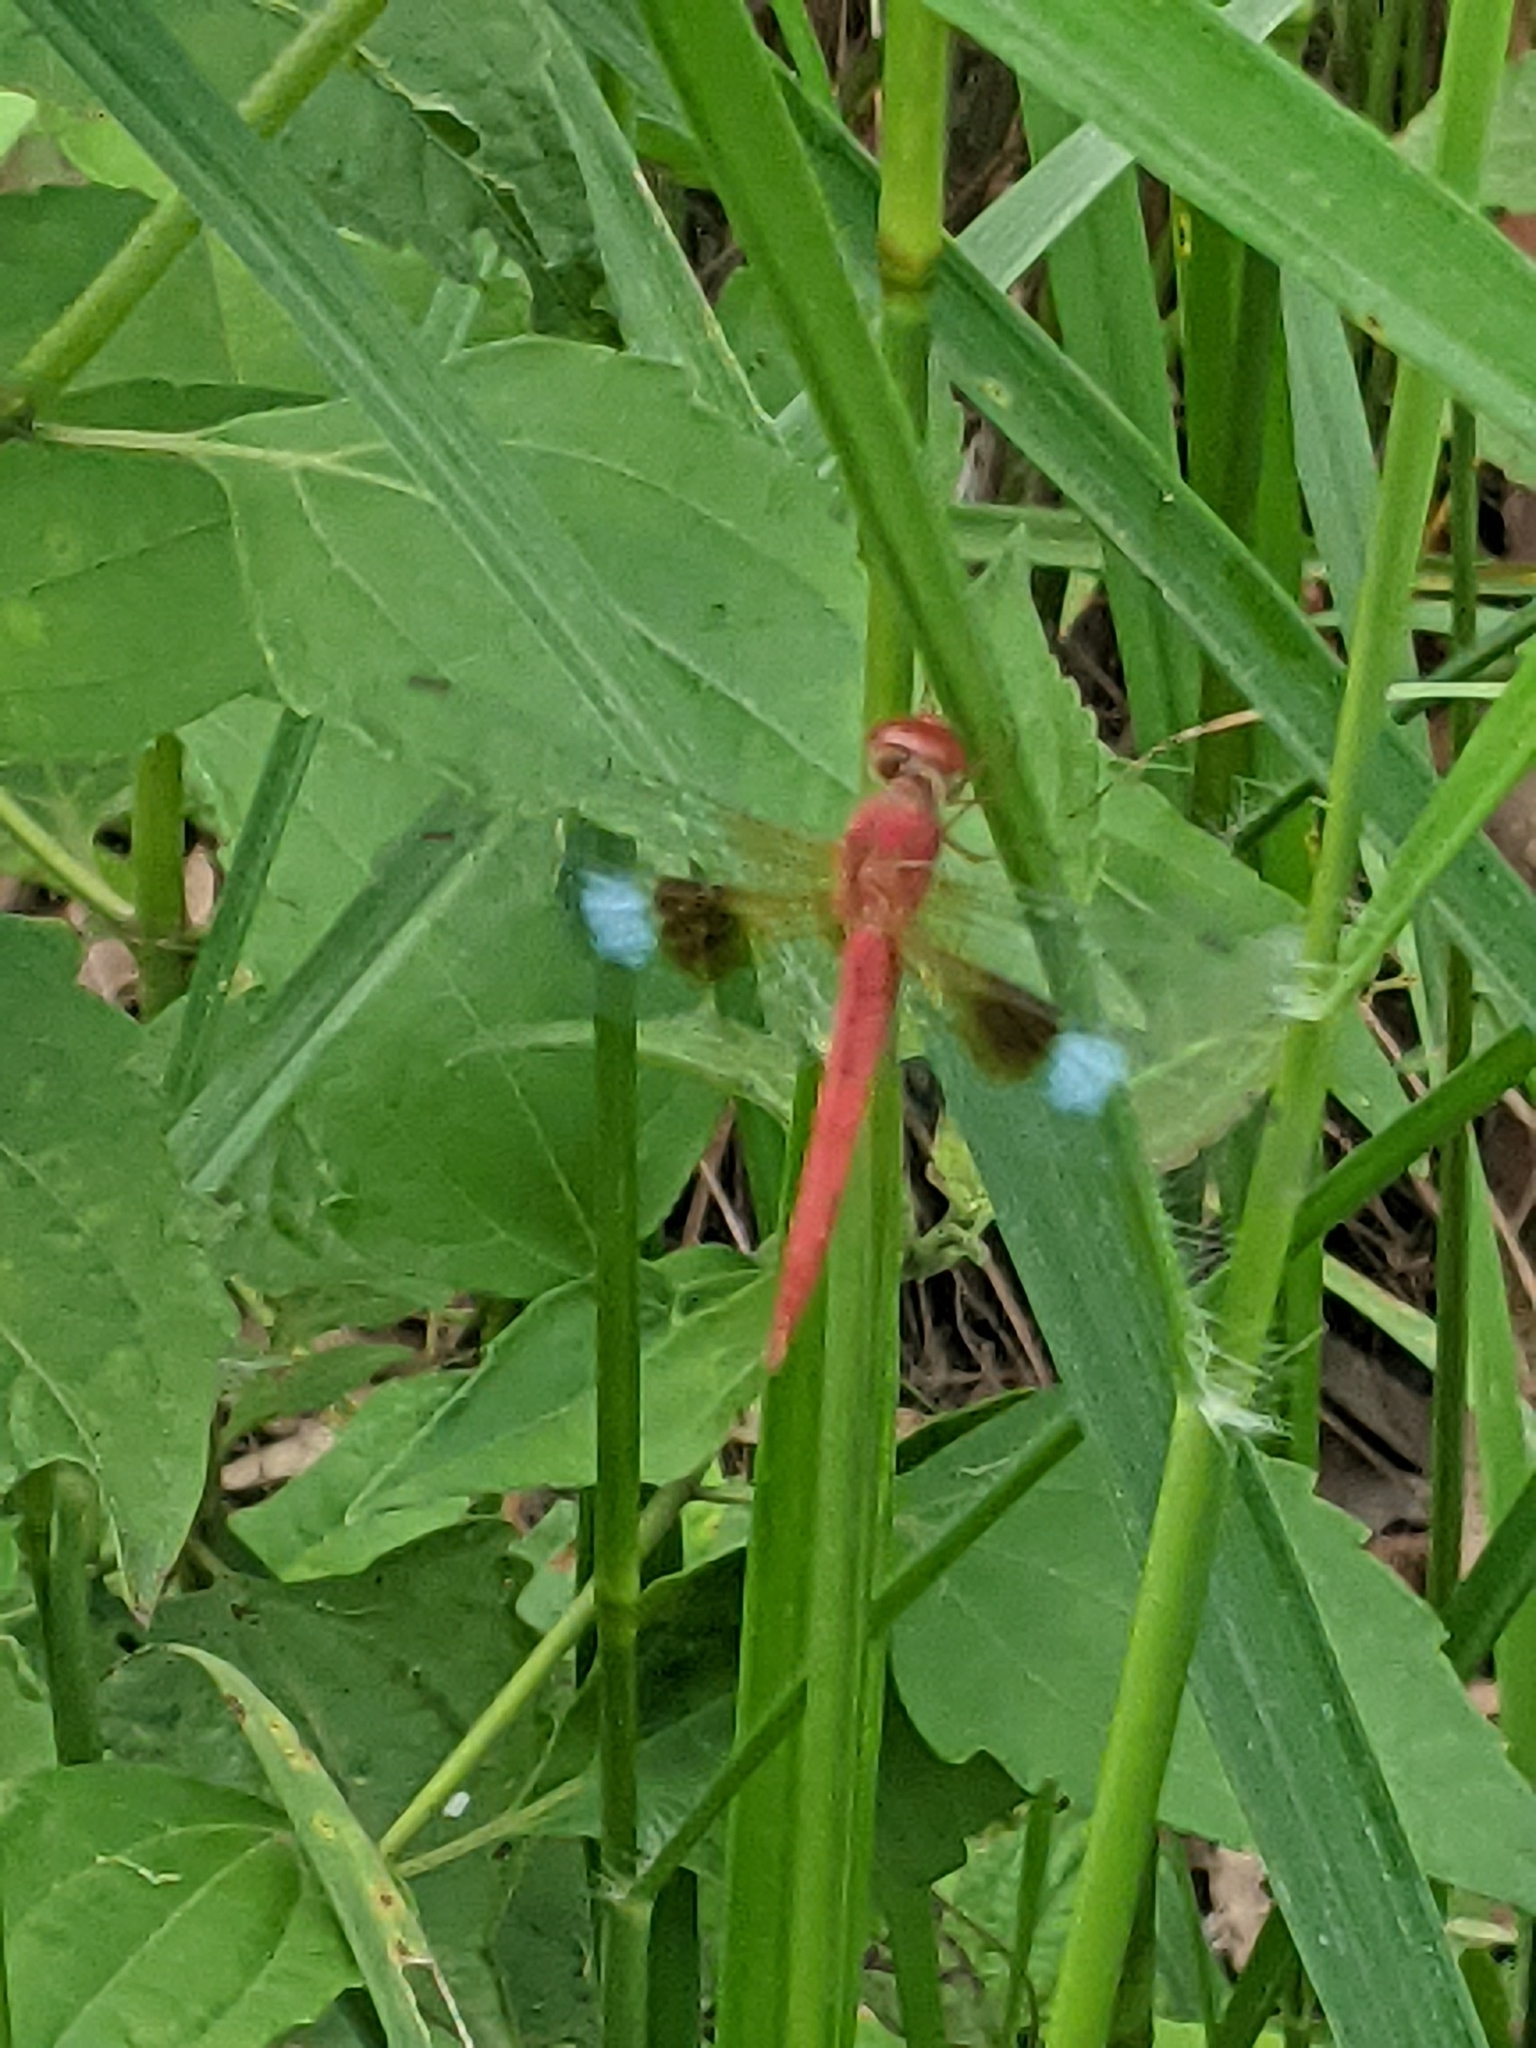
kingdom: Animalia
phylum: Arthropoda
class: Insecta
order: Odonata
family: Libellulidae
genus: Tholymis
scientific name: Tholymis tillarga
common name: Coral-tailed cloud wing
